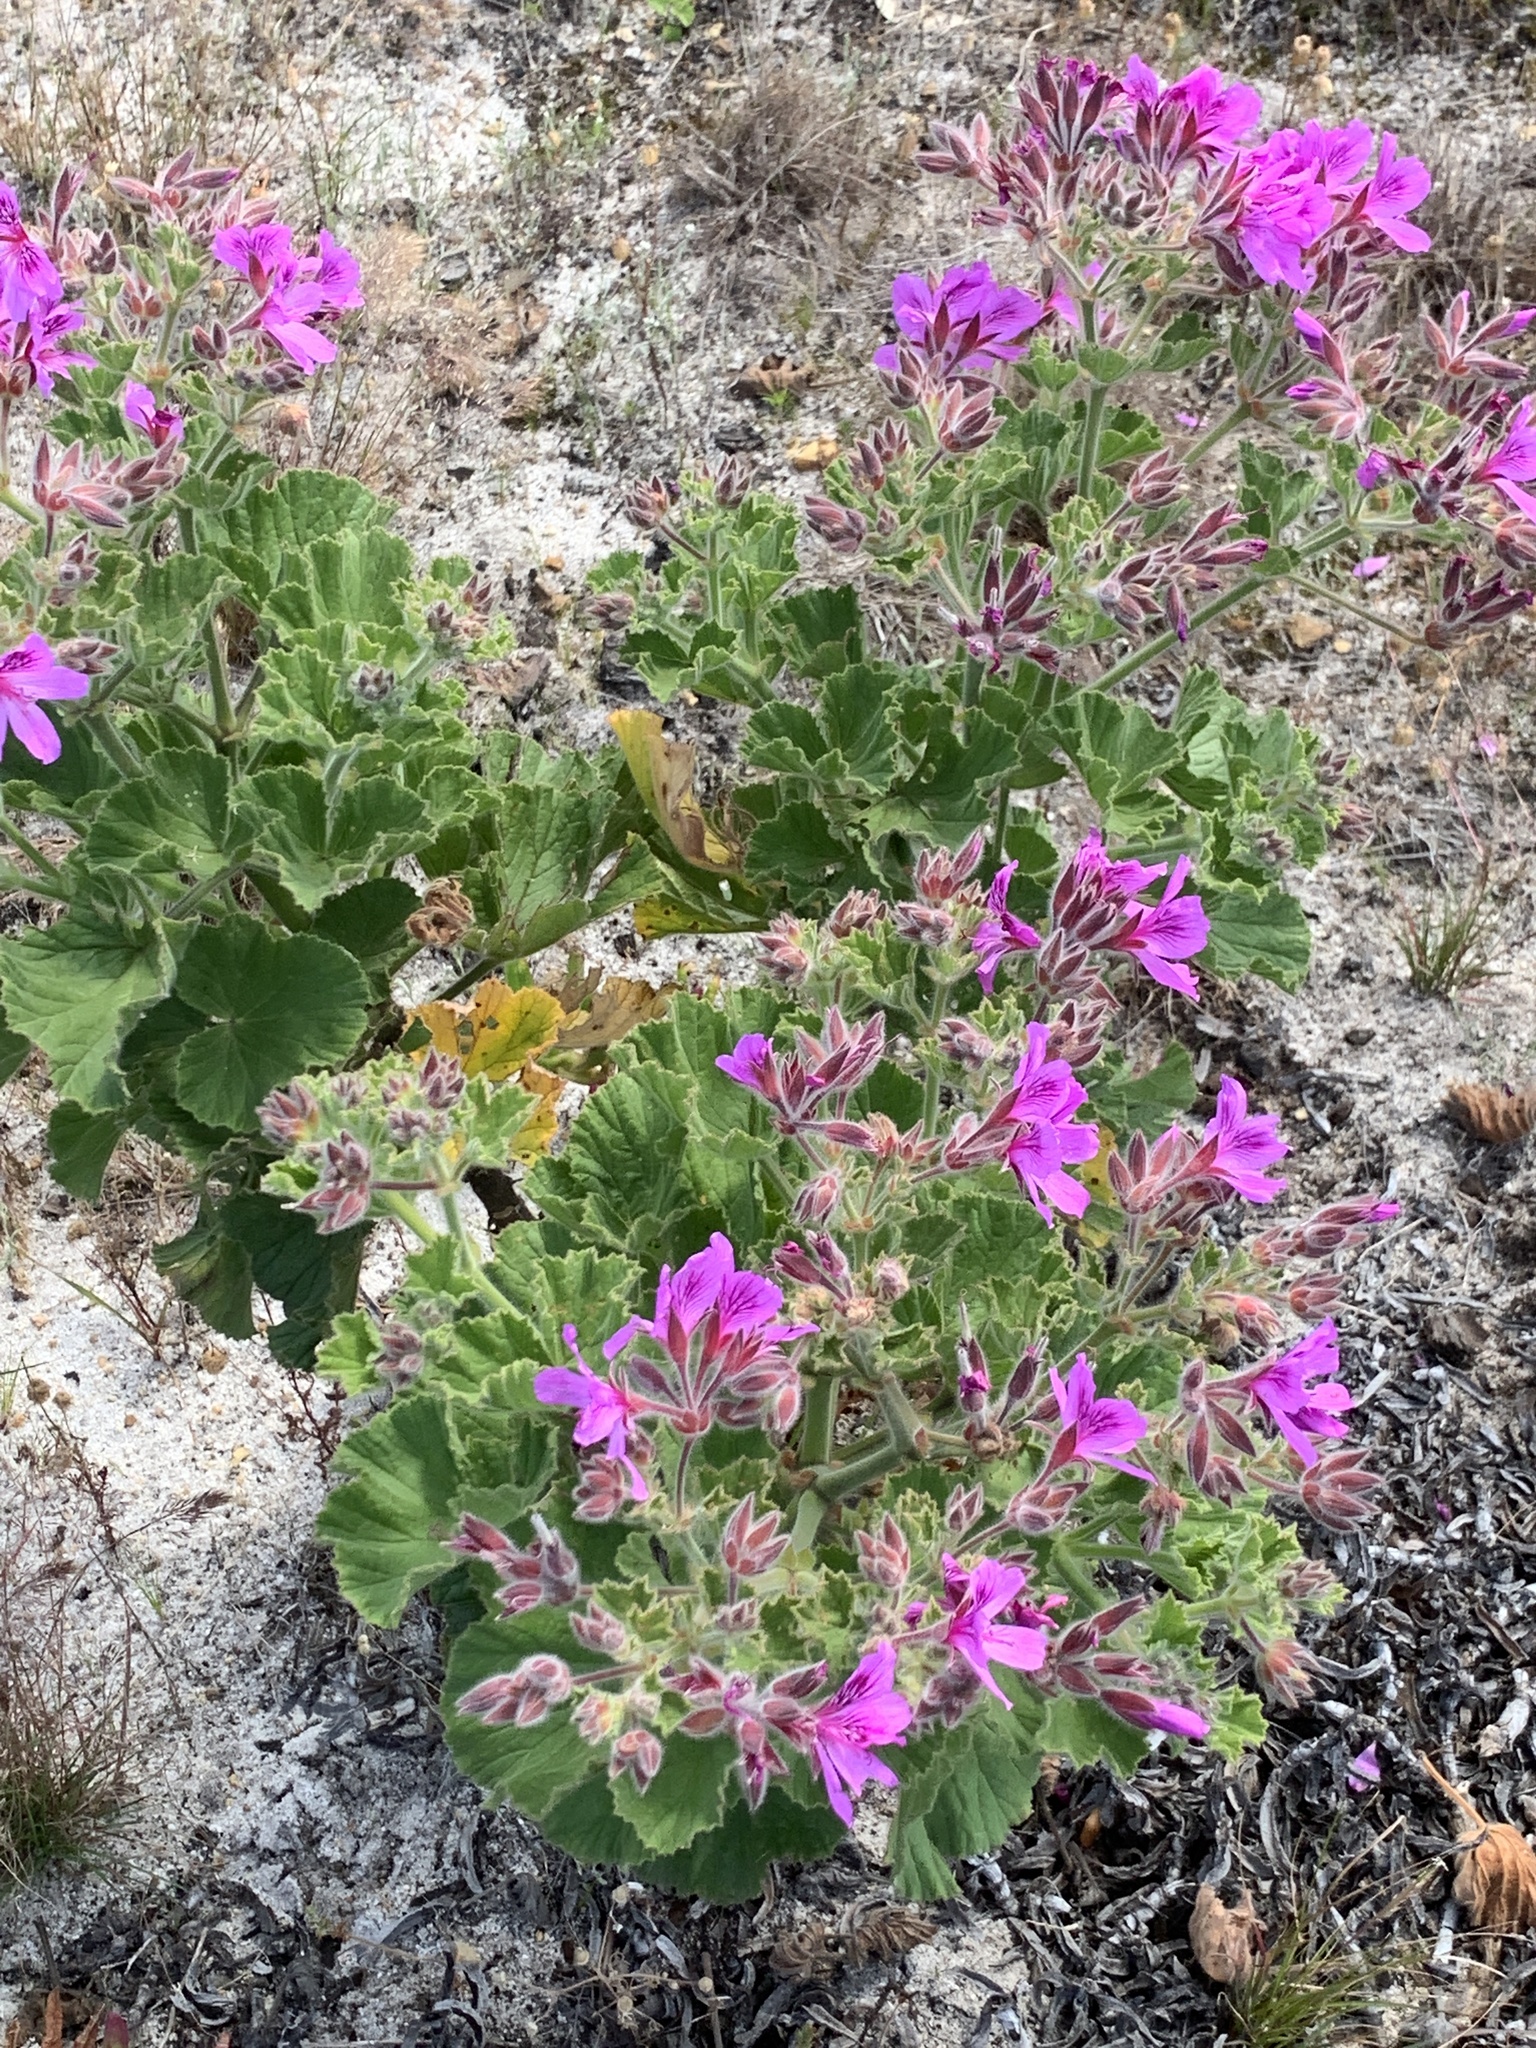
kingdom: Plantae
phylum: Tracheophyta
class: Magnoliopsida
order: Geraniales
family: Geraniaceae
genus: Pelargonium
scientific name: Pelargonium cucullatum
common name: Tree pelargonium
